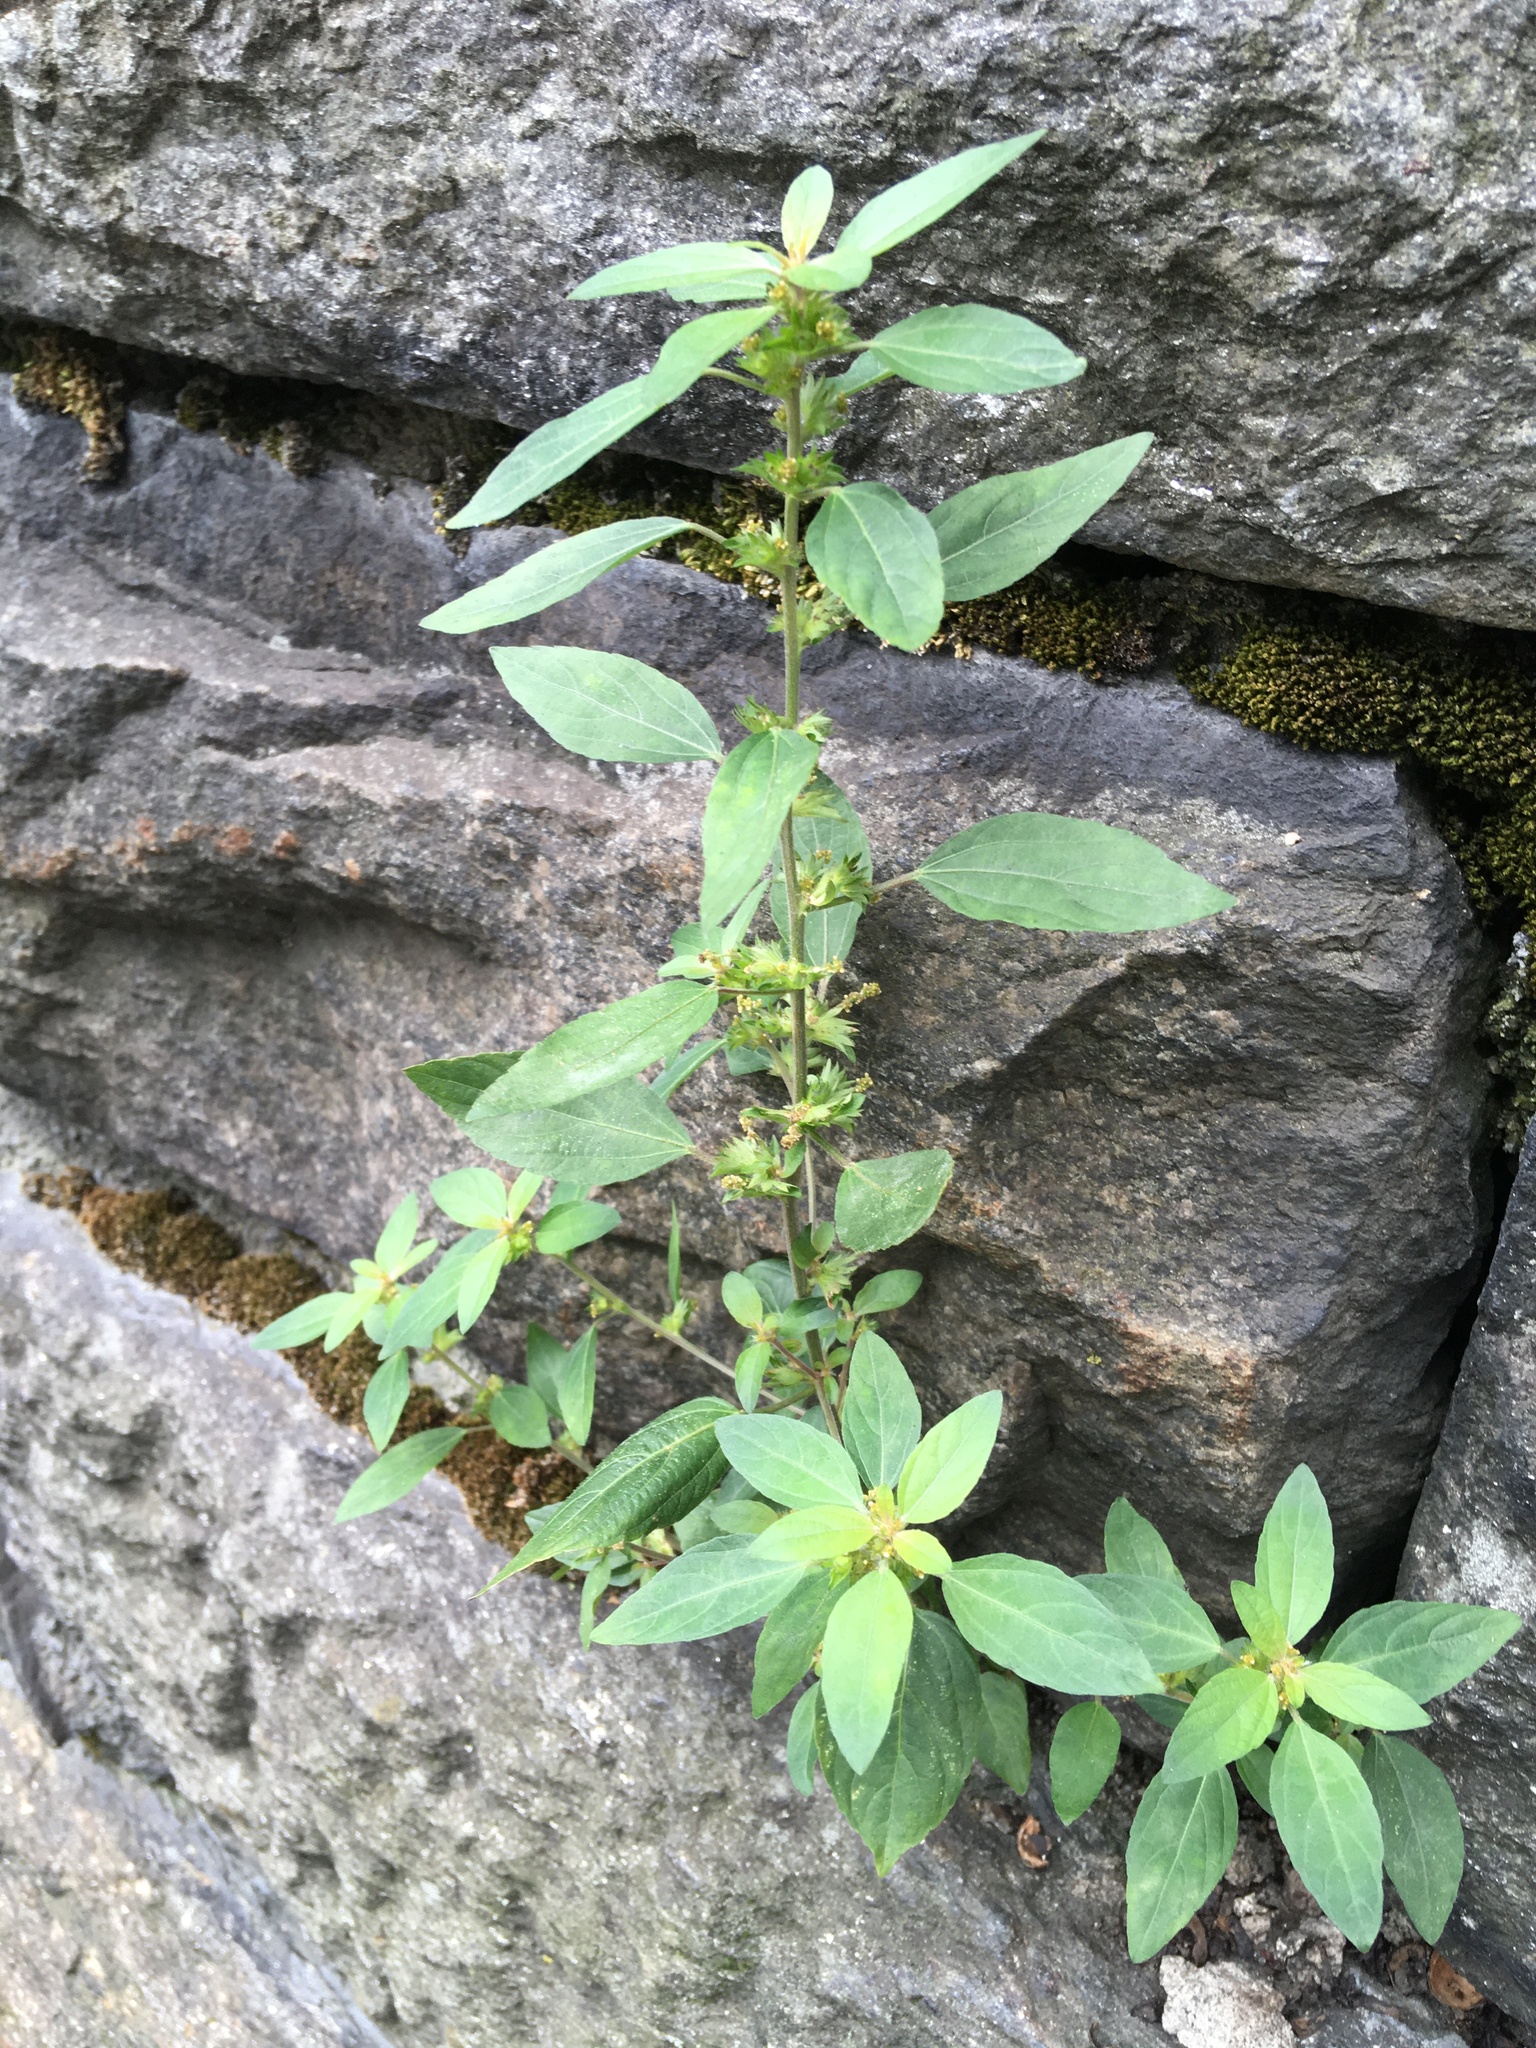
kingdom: Plantae
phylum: Tracheophyta
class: Magnoliopsida
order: Malpighiales
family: Euphorbiaceae
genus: Acalypha
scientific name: Acalypha rhomboidea
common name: Rhombic copperleaf
